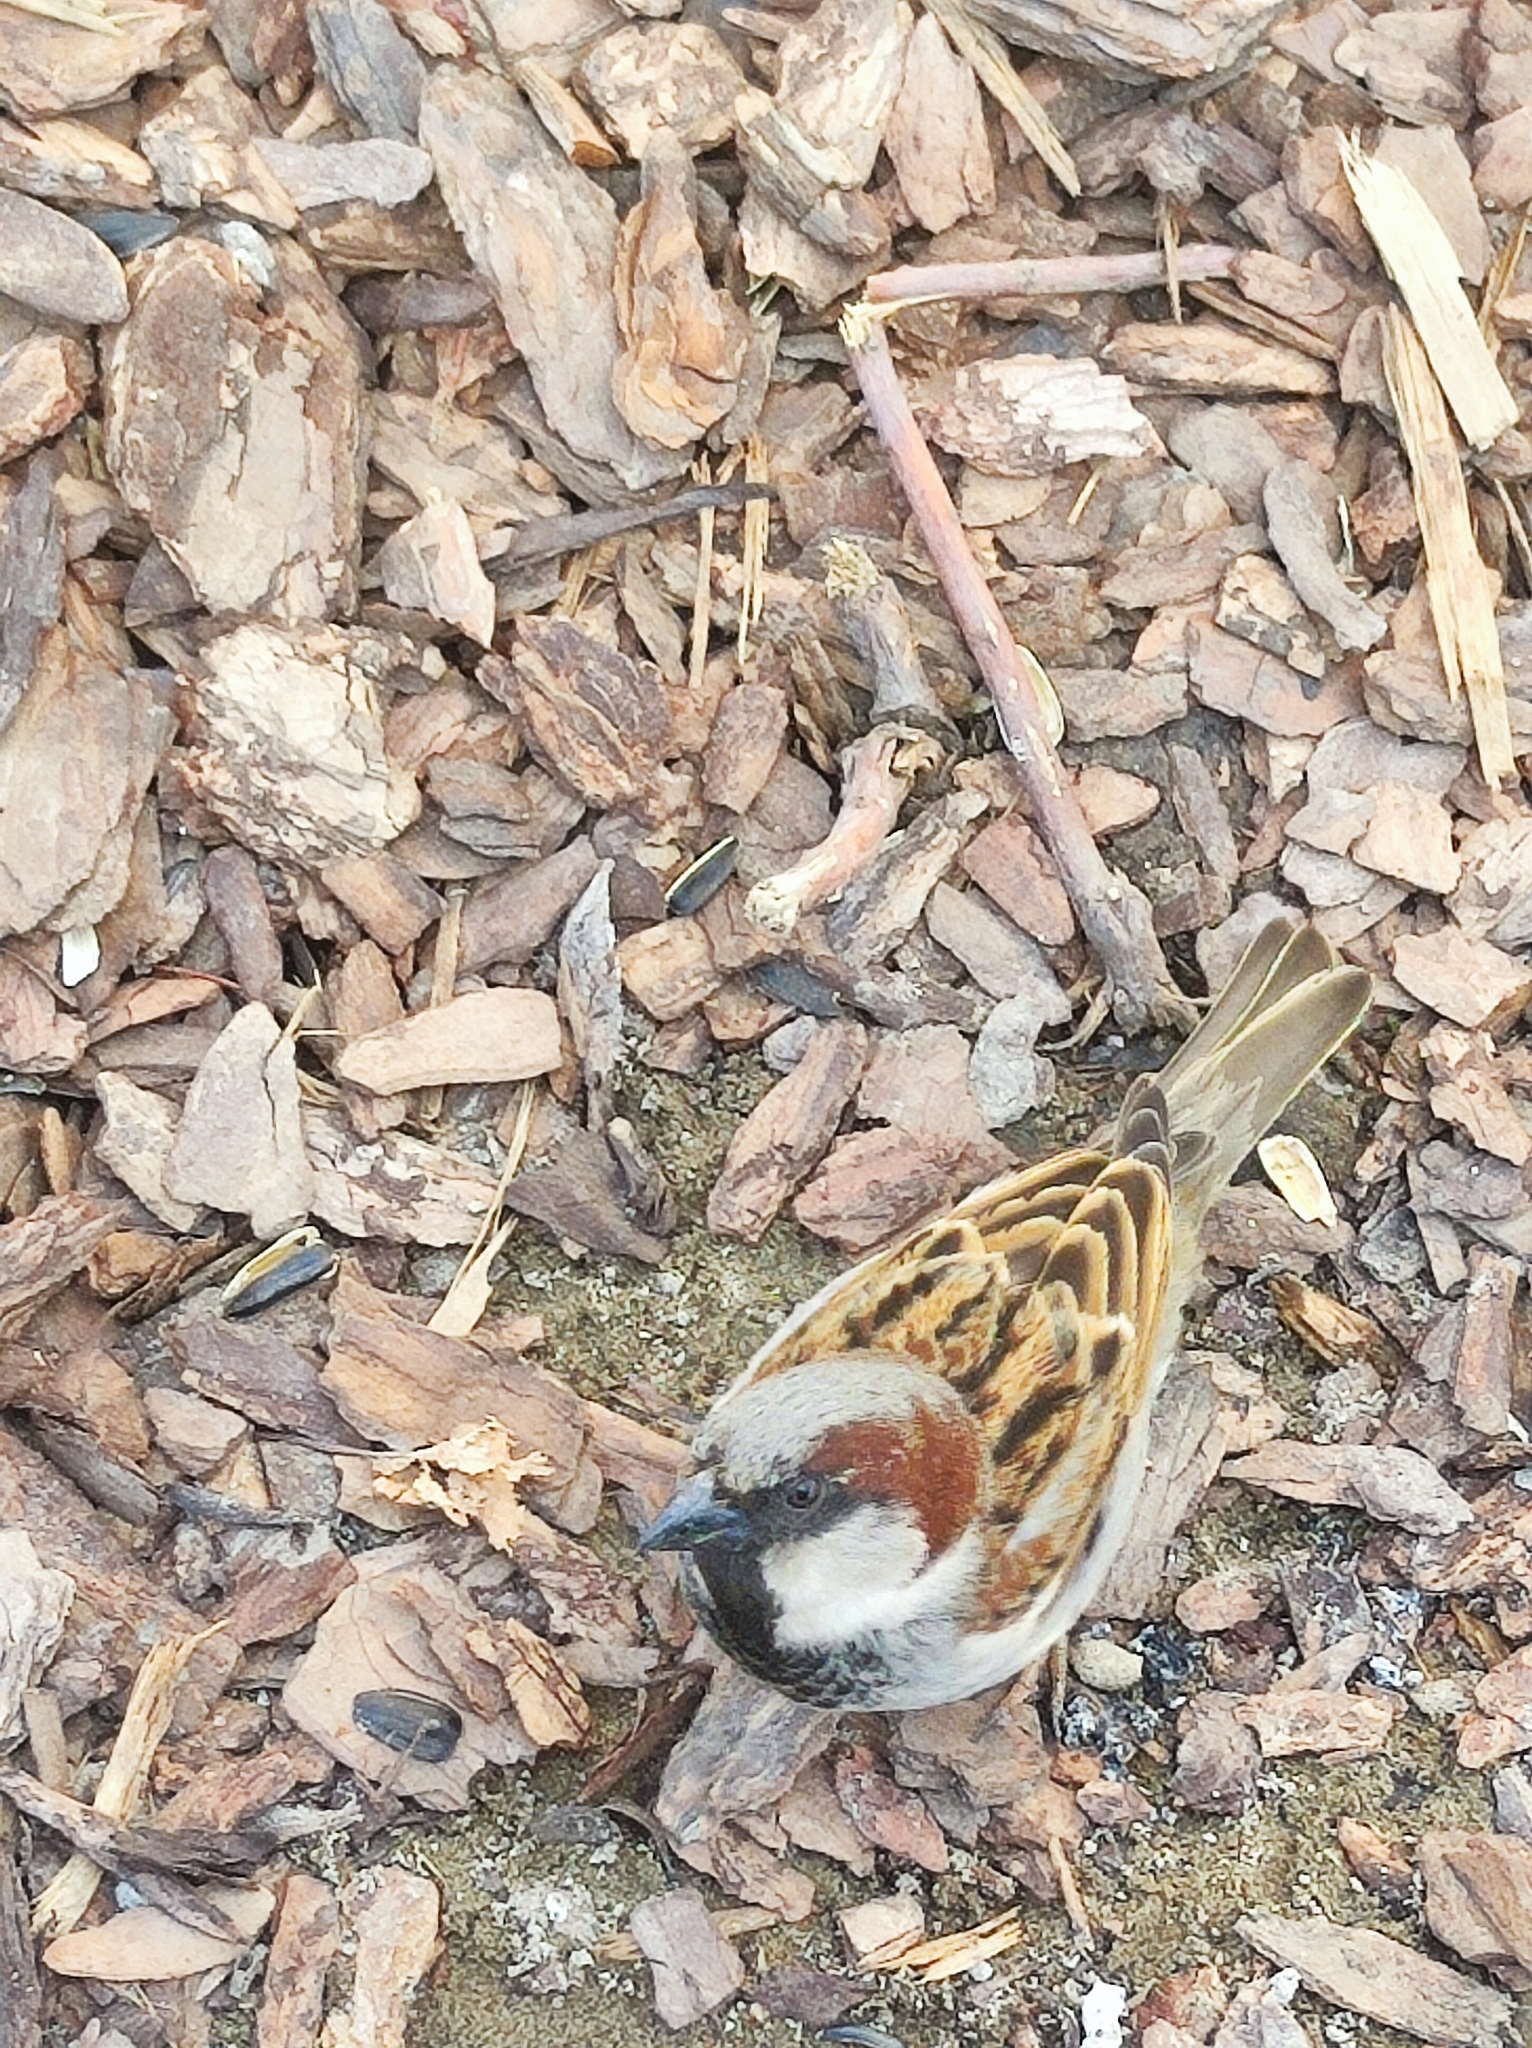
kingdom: Animalia
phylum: Chordata
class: Aves
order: Passeriformes
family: Passeridae
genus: Passer
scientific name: Passer domesticus
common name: House sparrow
